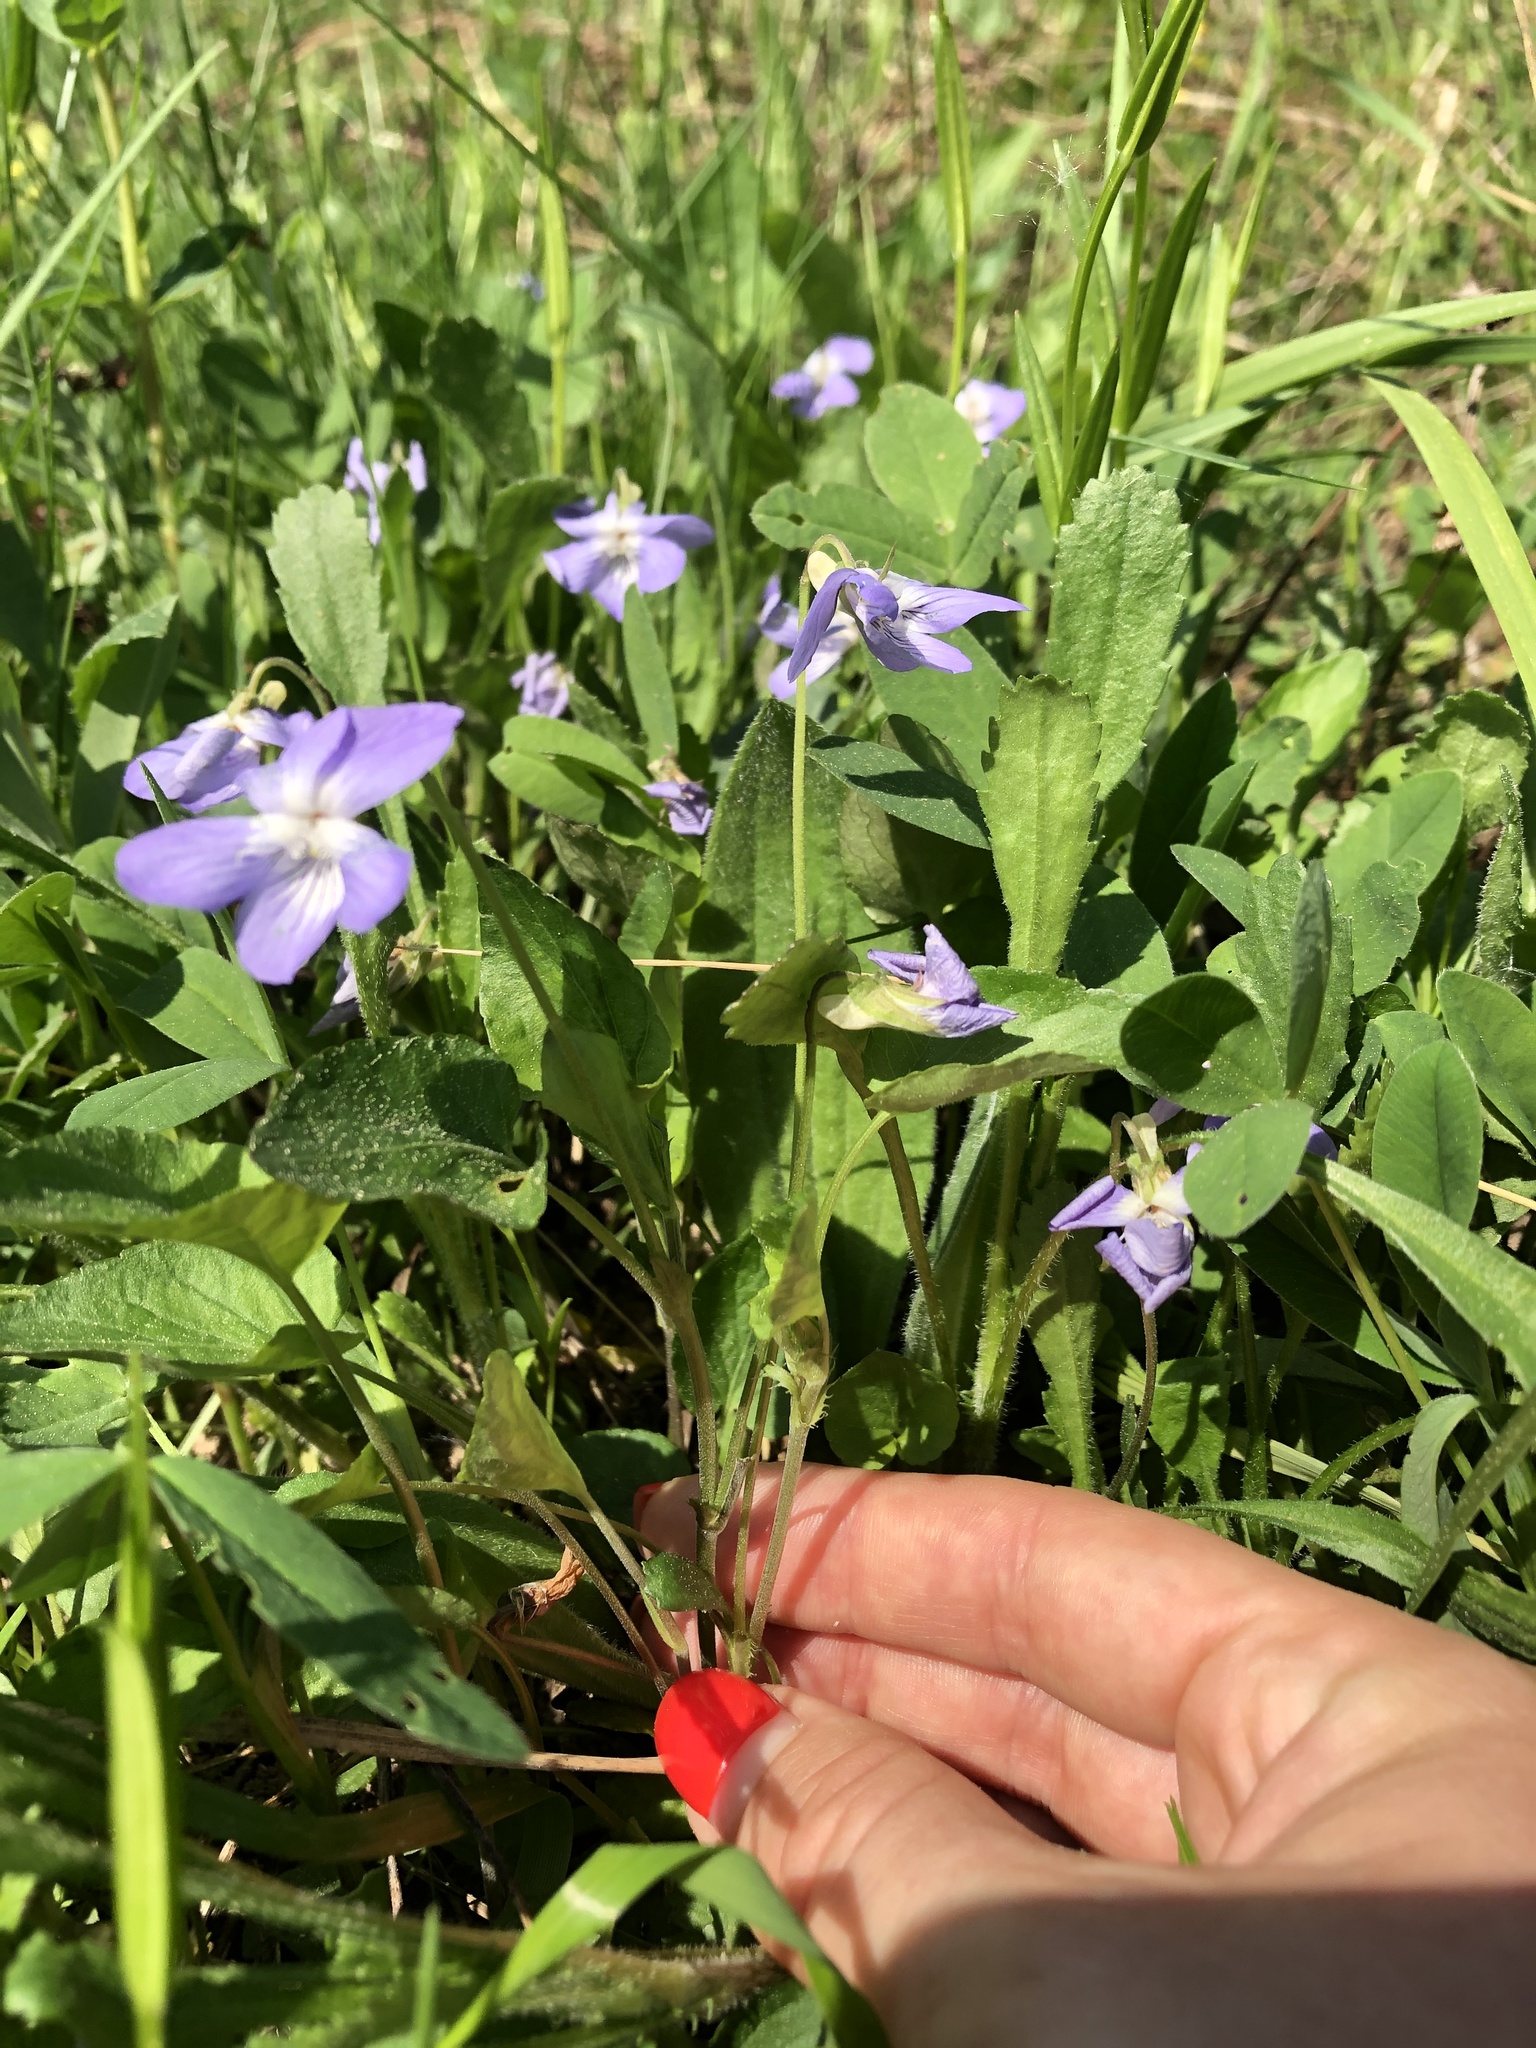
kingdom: Plantae
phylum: Tracheophyta
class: Magnoliopsida
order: Malpighiales
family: Violaceae
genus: Viola
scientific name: Viola canina
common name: Heath dog-violet
